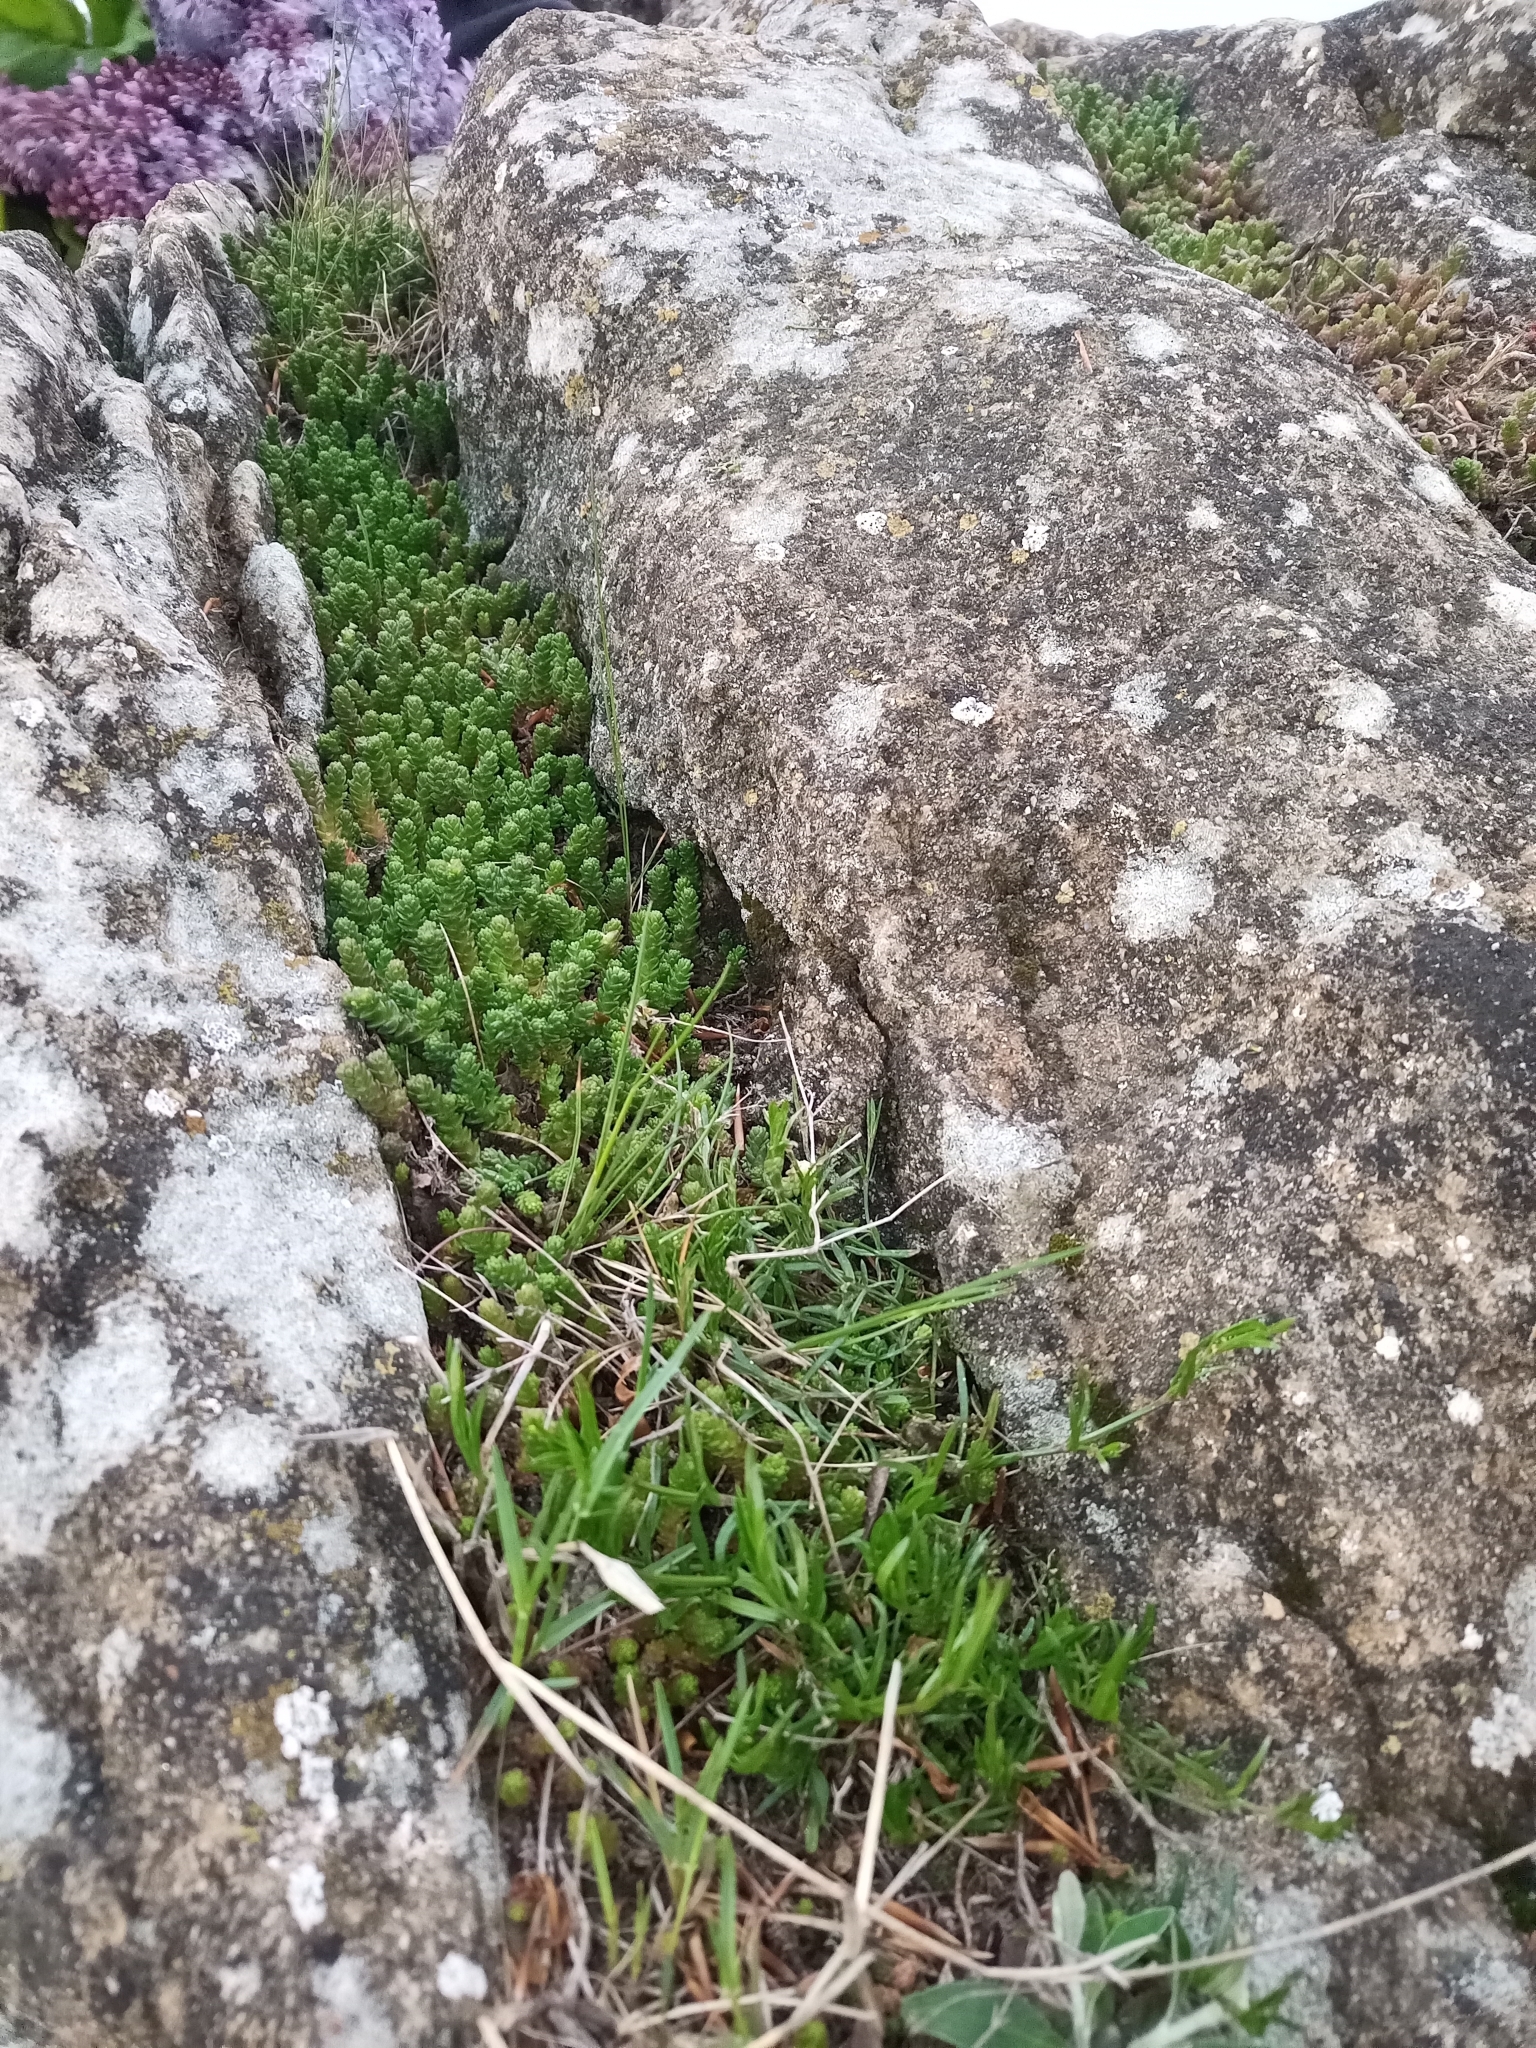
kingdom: Plantae
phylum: Tracheophyta
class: Magnoliopsida
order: Saxifragales
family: Crassulaceae
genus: Sedum
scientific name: Sedum acre
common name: Biting stonecrop
